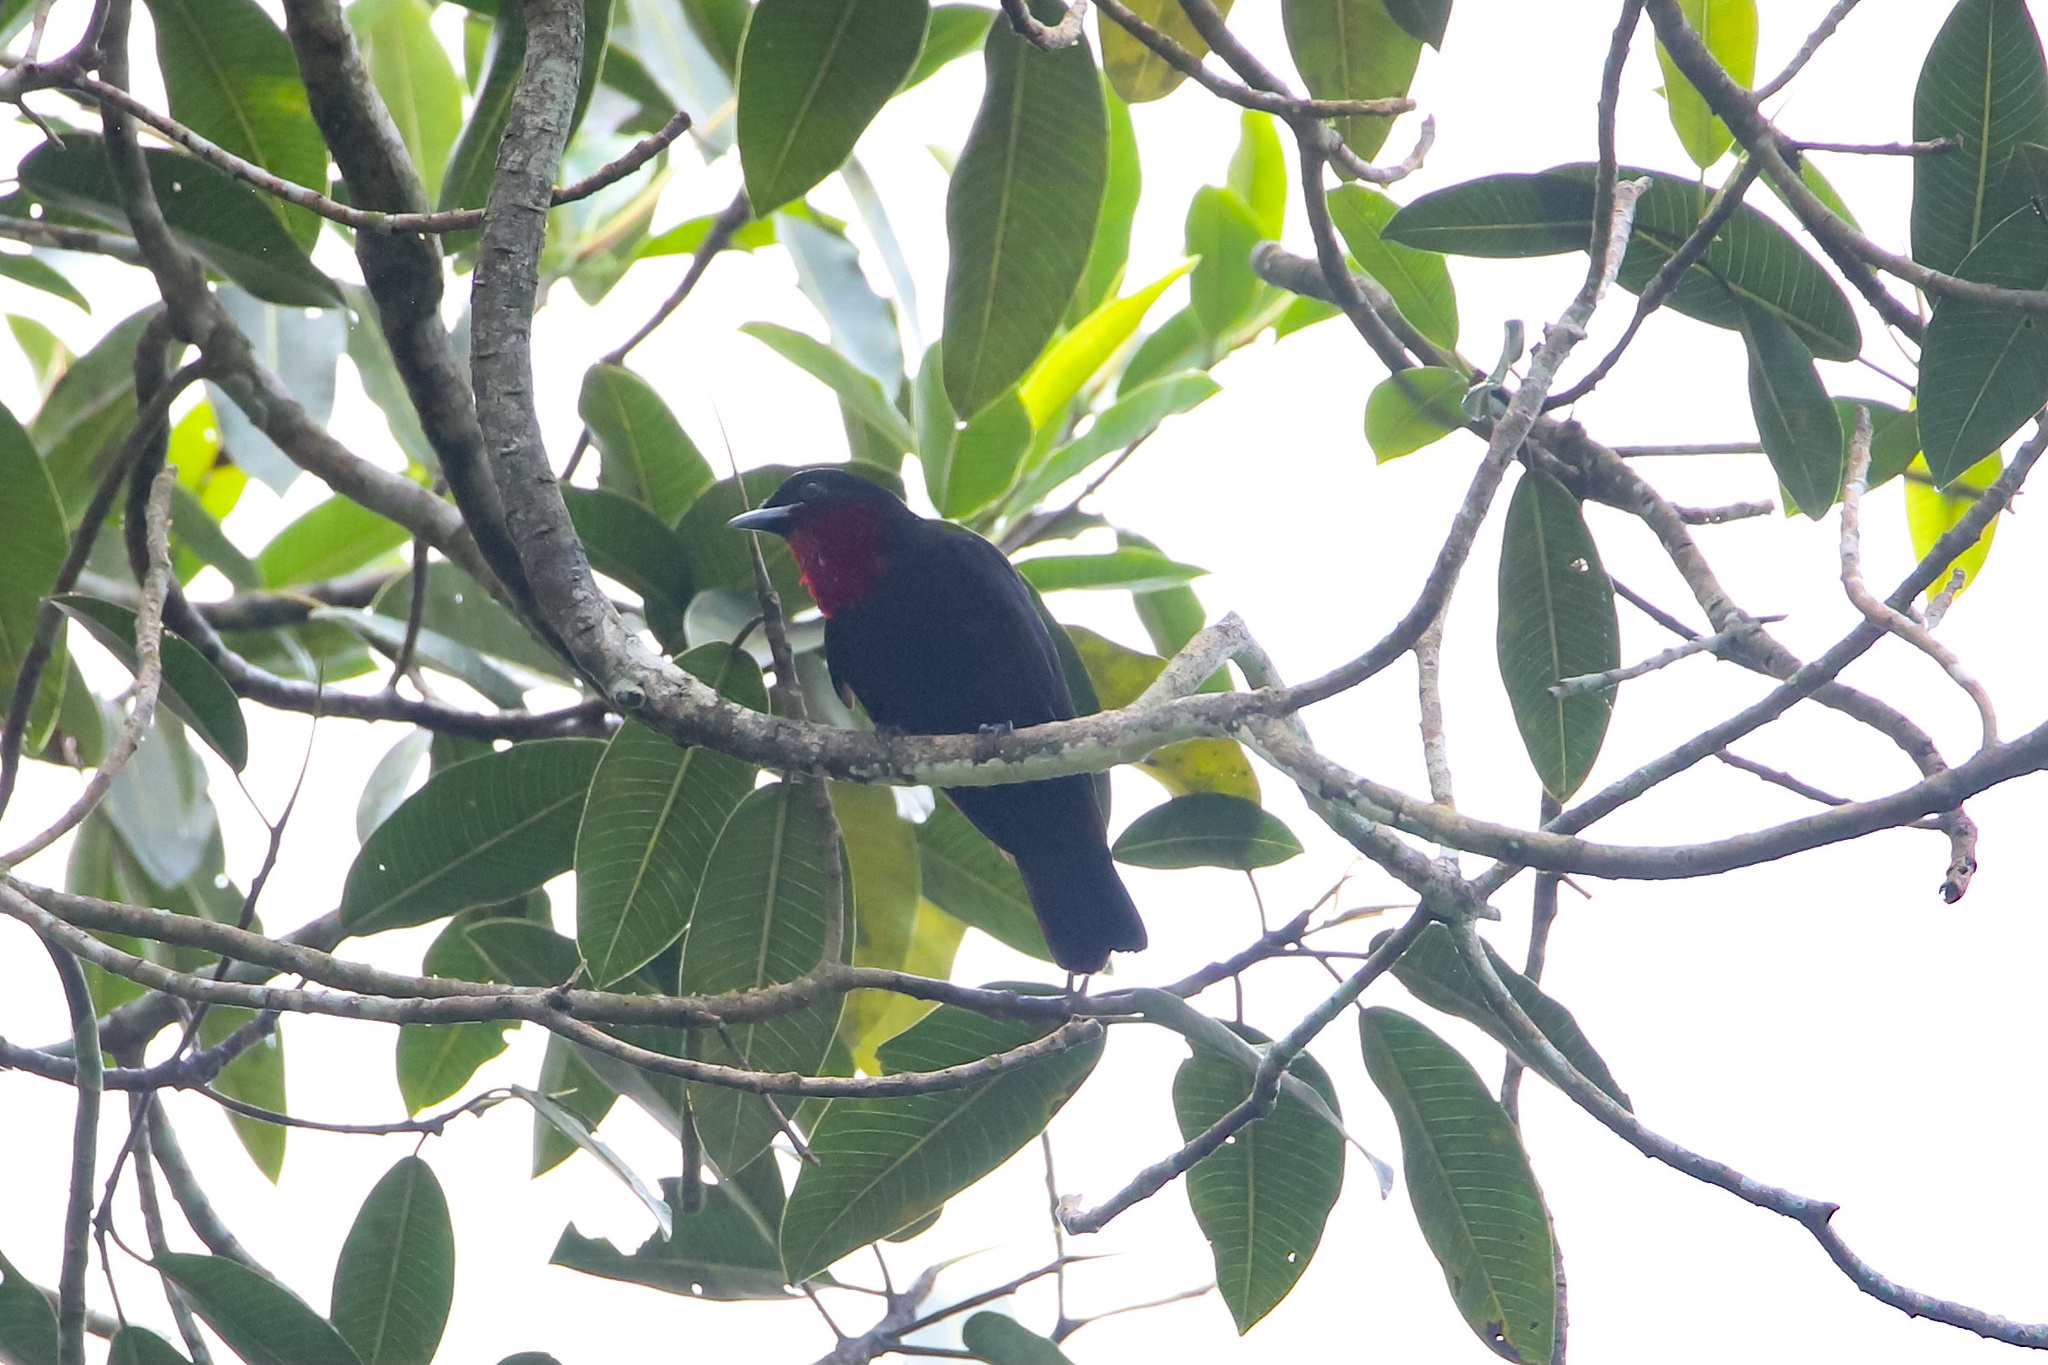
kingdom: Animalia
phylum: Chordata
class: Aves
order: Passeriformes
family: Cotingidae
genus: Querula
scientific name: Querula purpurata
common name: Purple-throated fruitcrow
